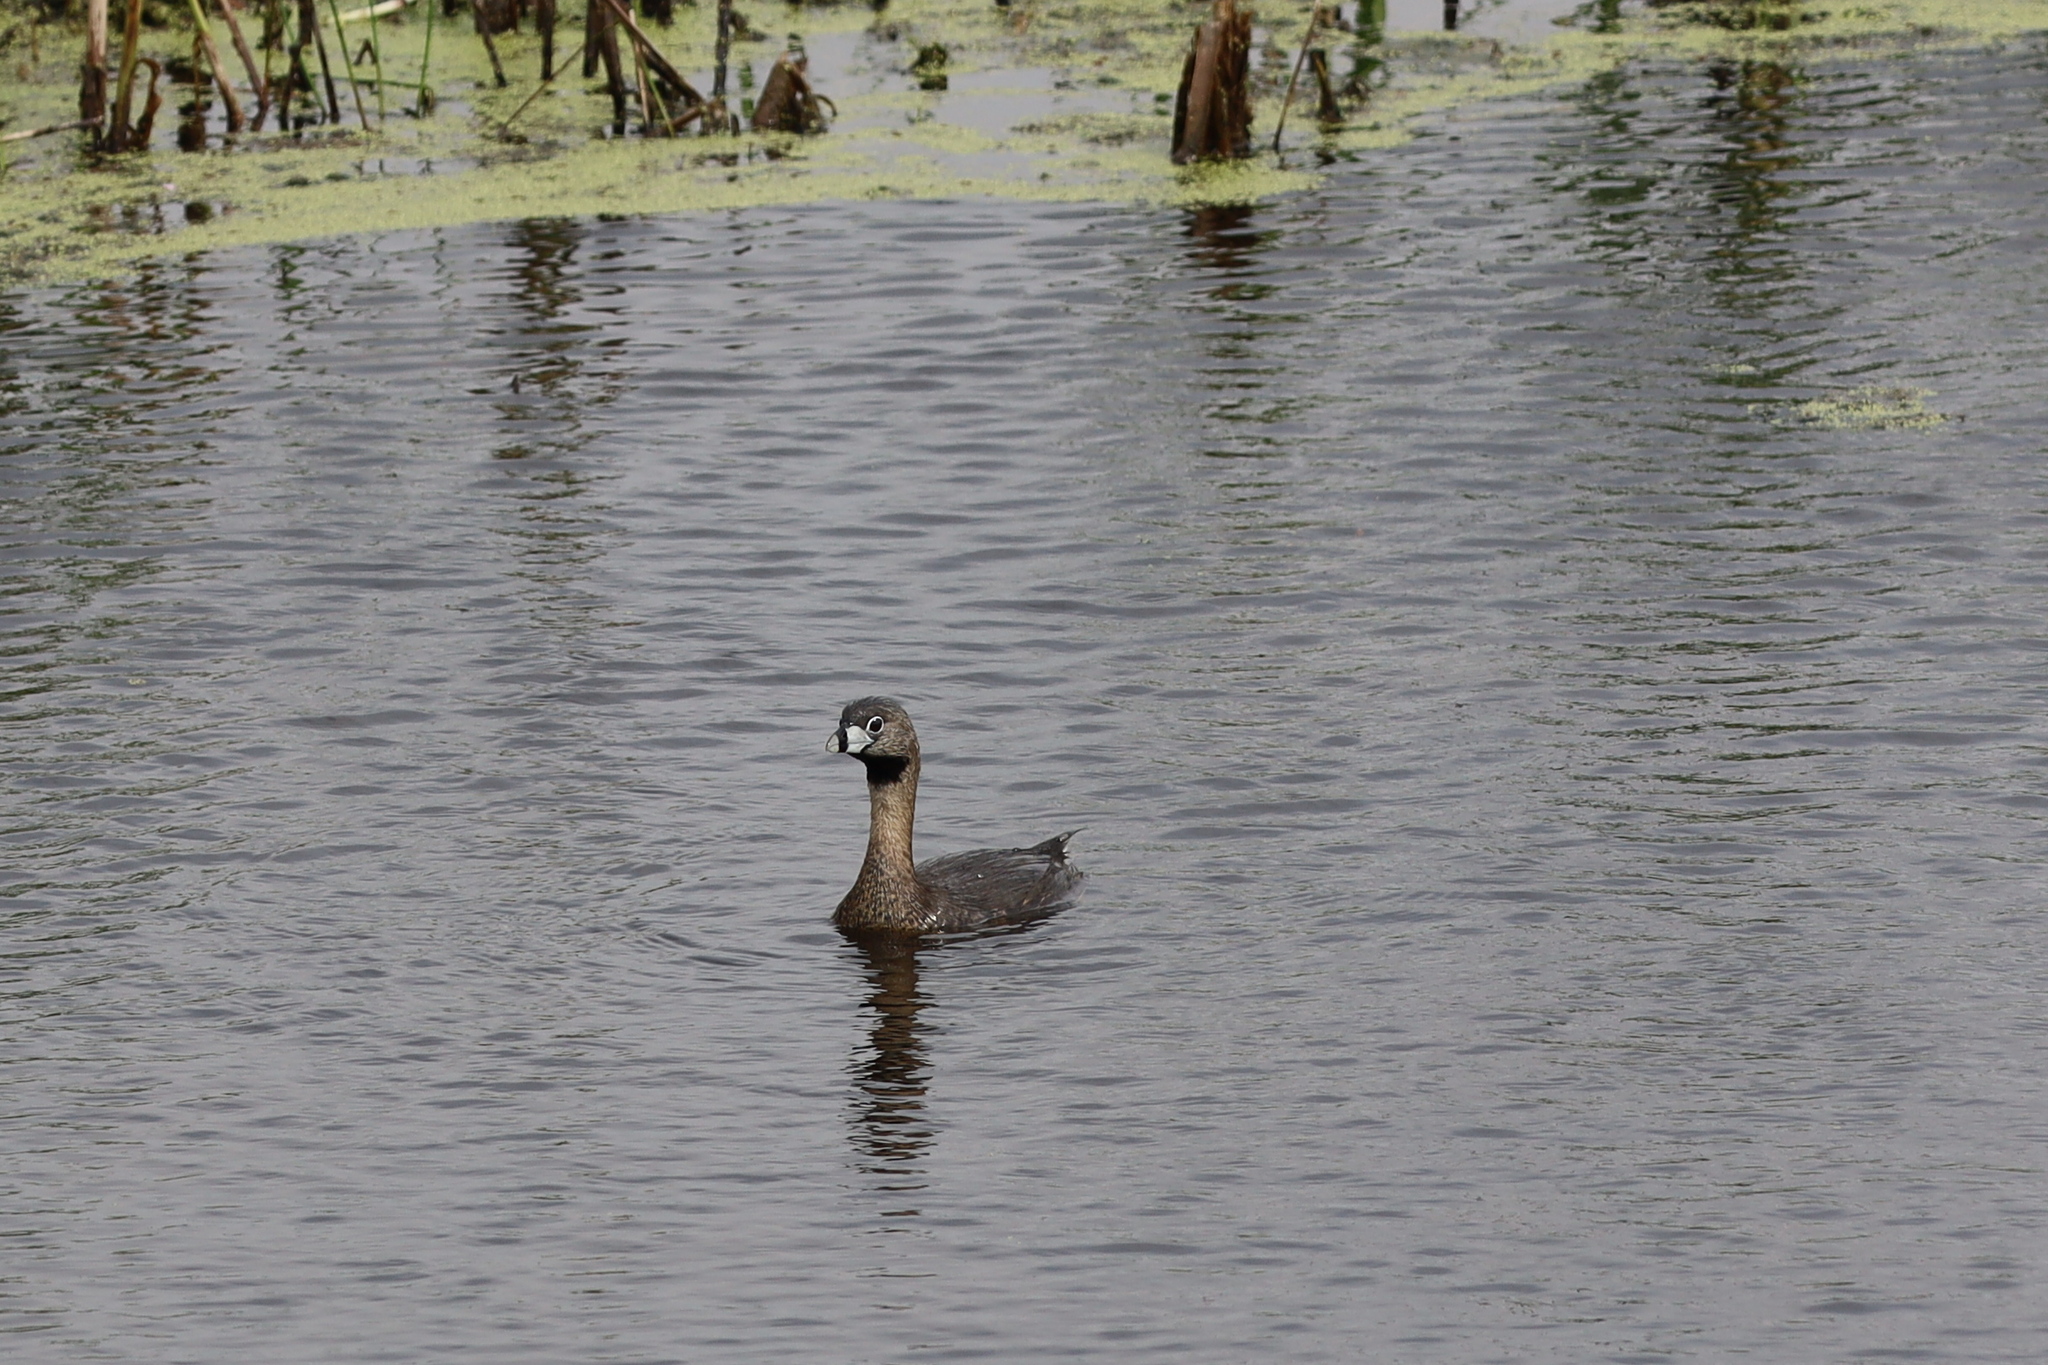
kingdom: Animalia
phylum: Chordata
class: Aves
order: Podicipediformes
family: Podicipedidae
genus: Podilymbus
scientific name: Podilymbus podiceps
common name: Pied-billed grebe
